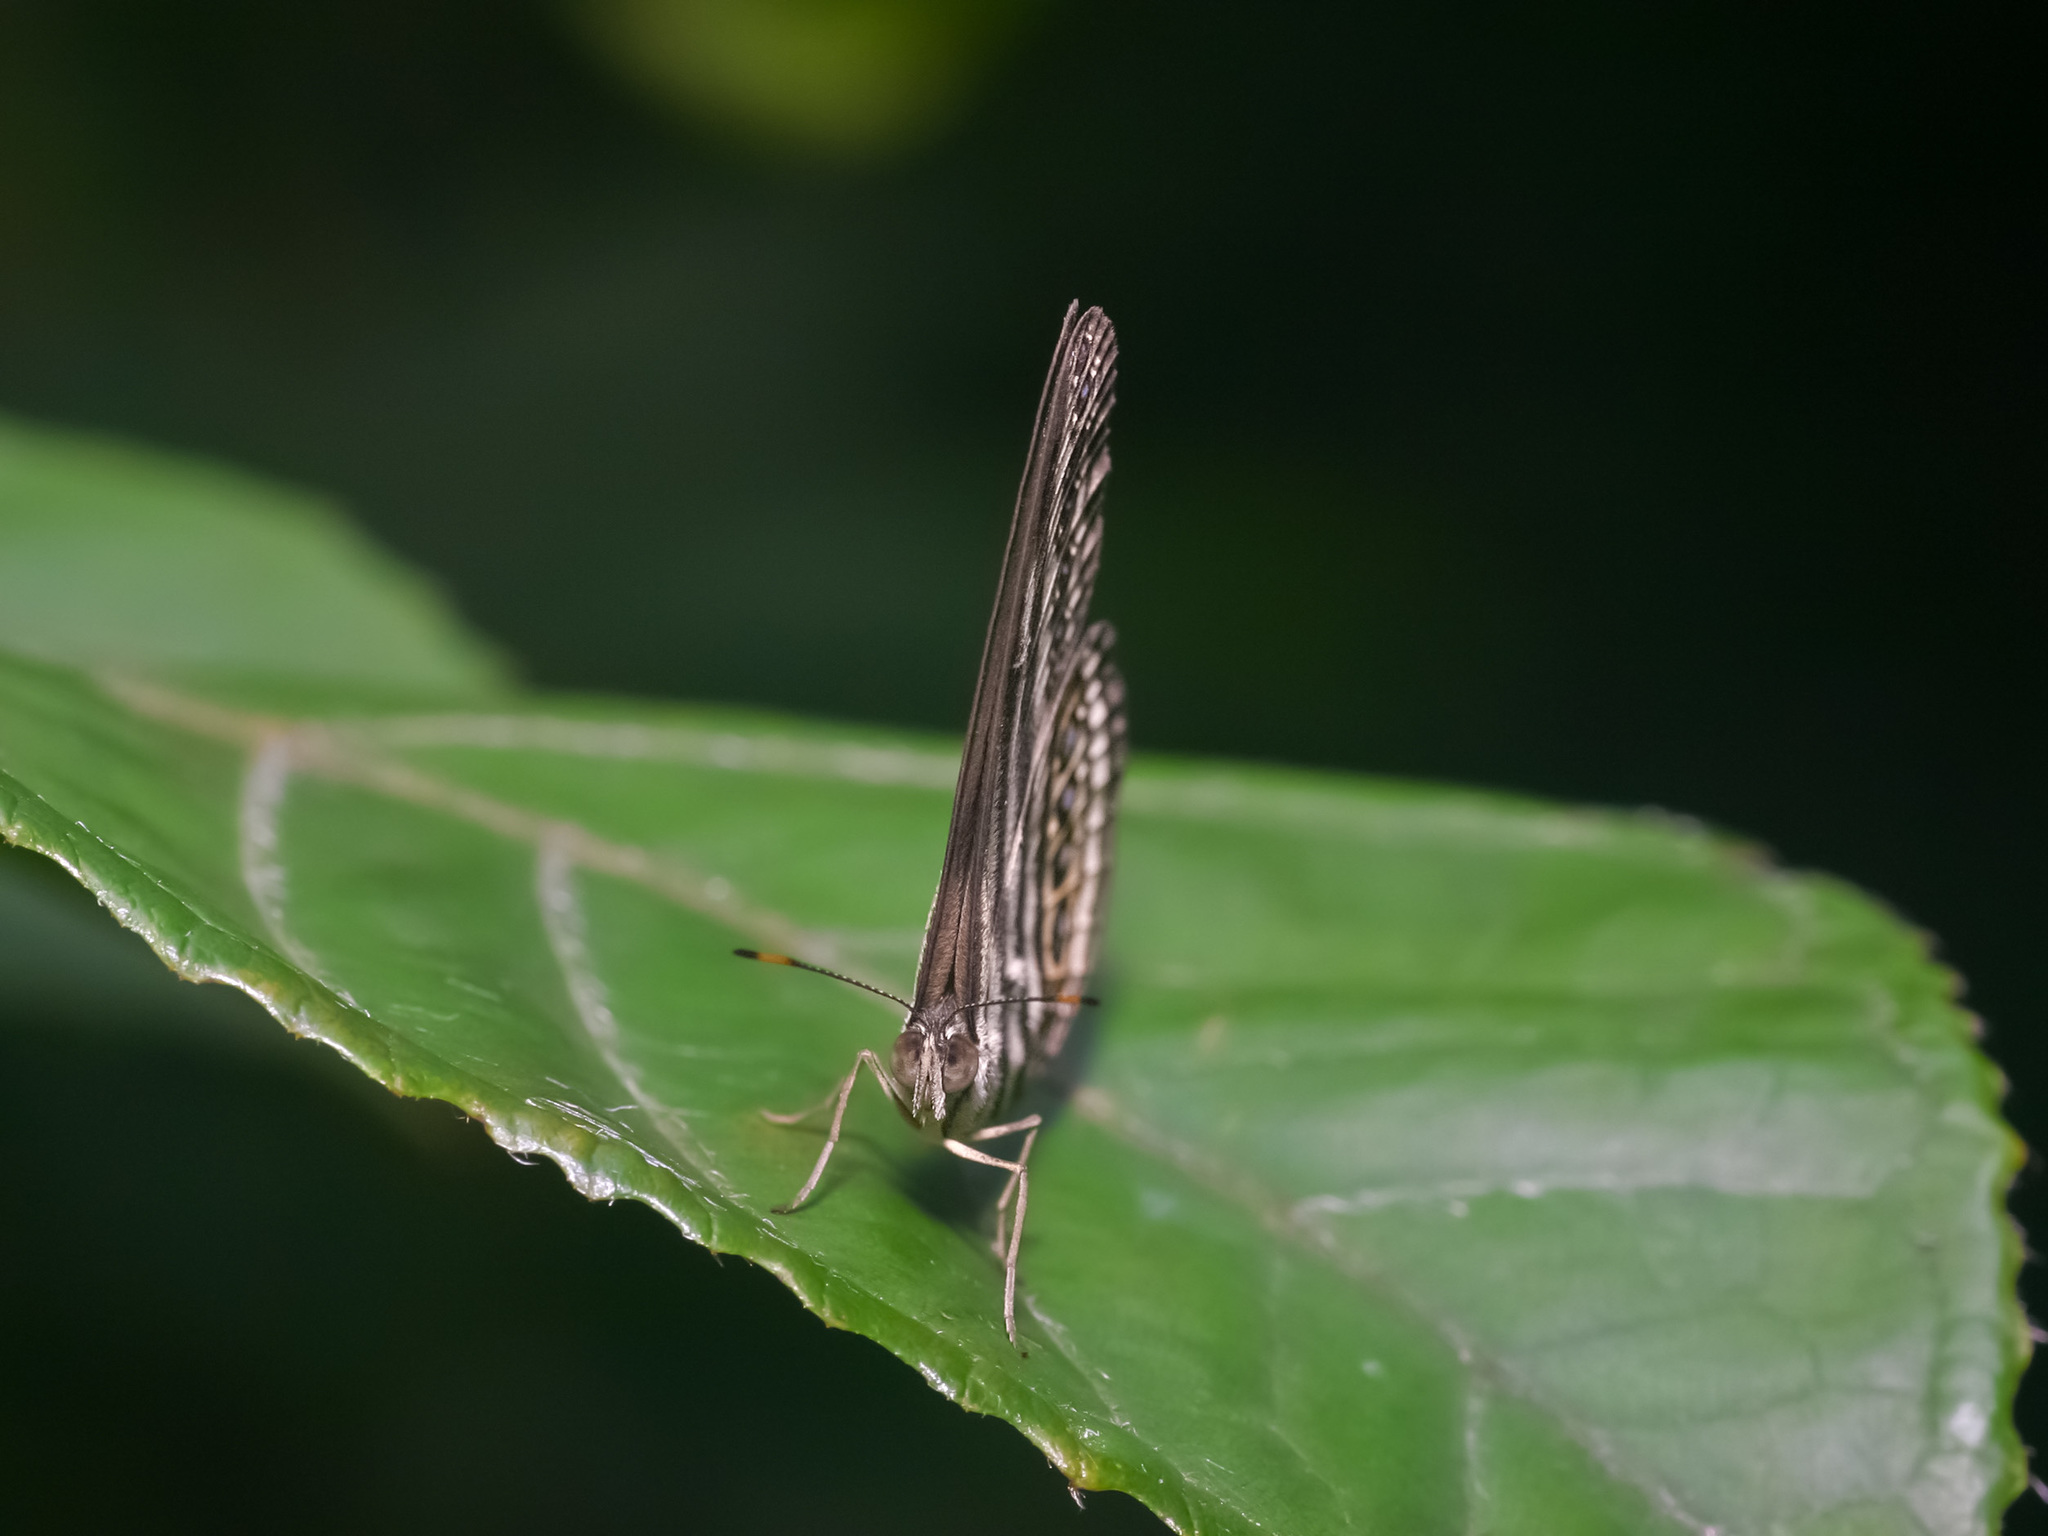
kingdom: Animalia
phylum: Arthropoda
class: Insecta
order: Lepidoptera
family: Nymphalidae
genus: Ragadia
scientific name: Ragadia makuta
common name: Striped ringlet
